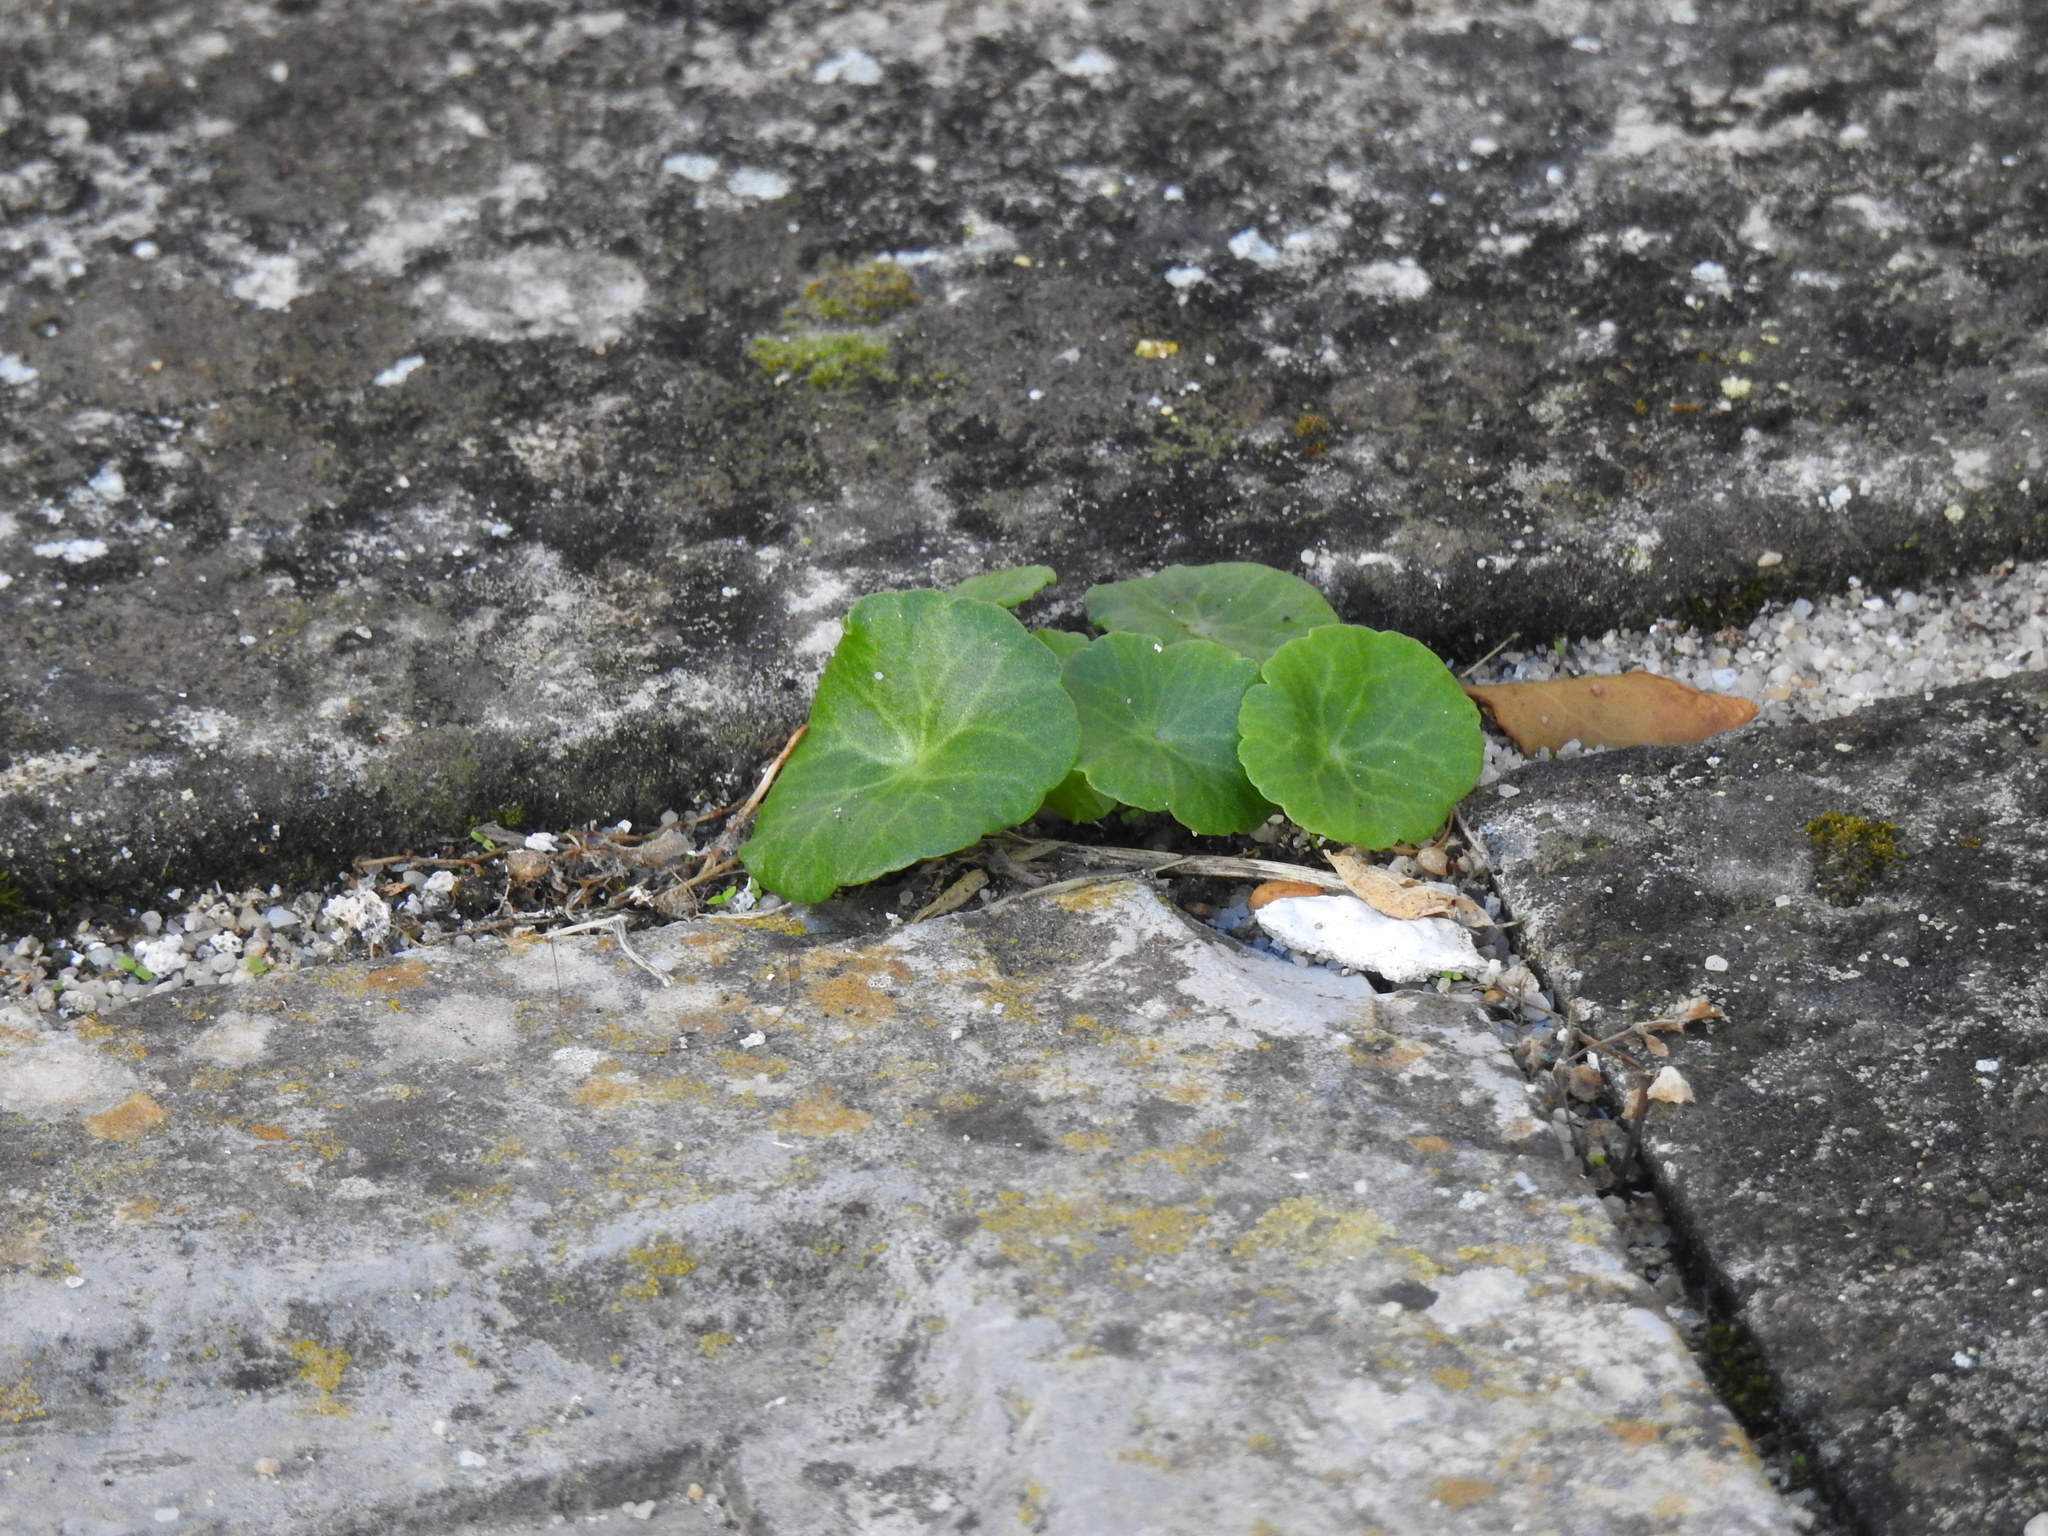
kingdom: Plantae
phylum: Tracheophyta
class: Magnoliopsida
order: Saxifragales
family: Crassulaceae
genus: Umbilicus
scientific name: Umbilicus rupestris
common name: Navelwort
